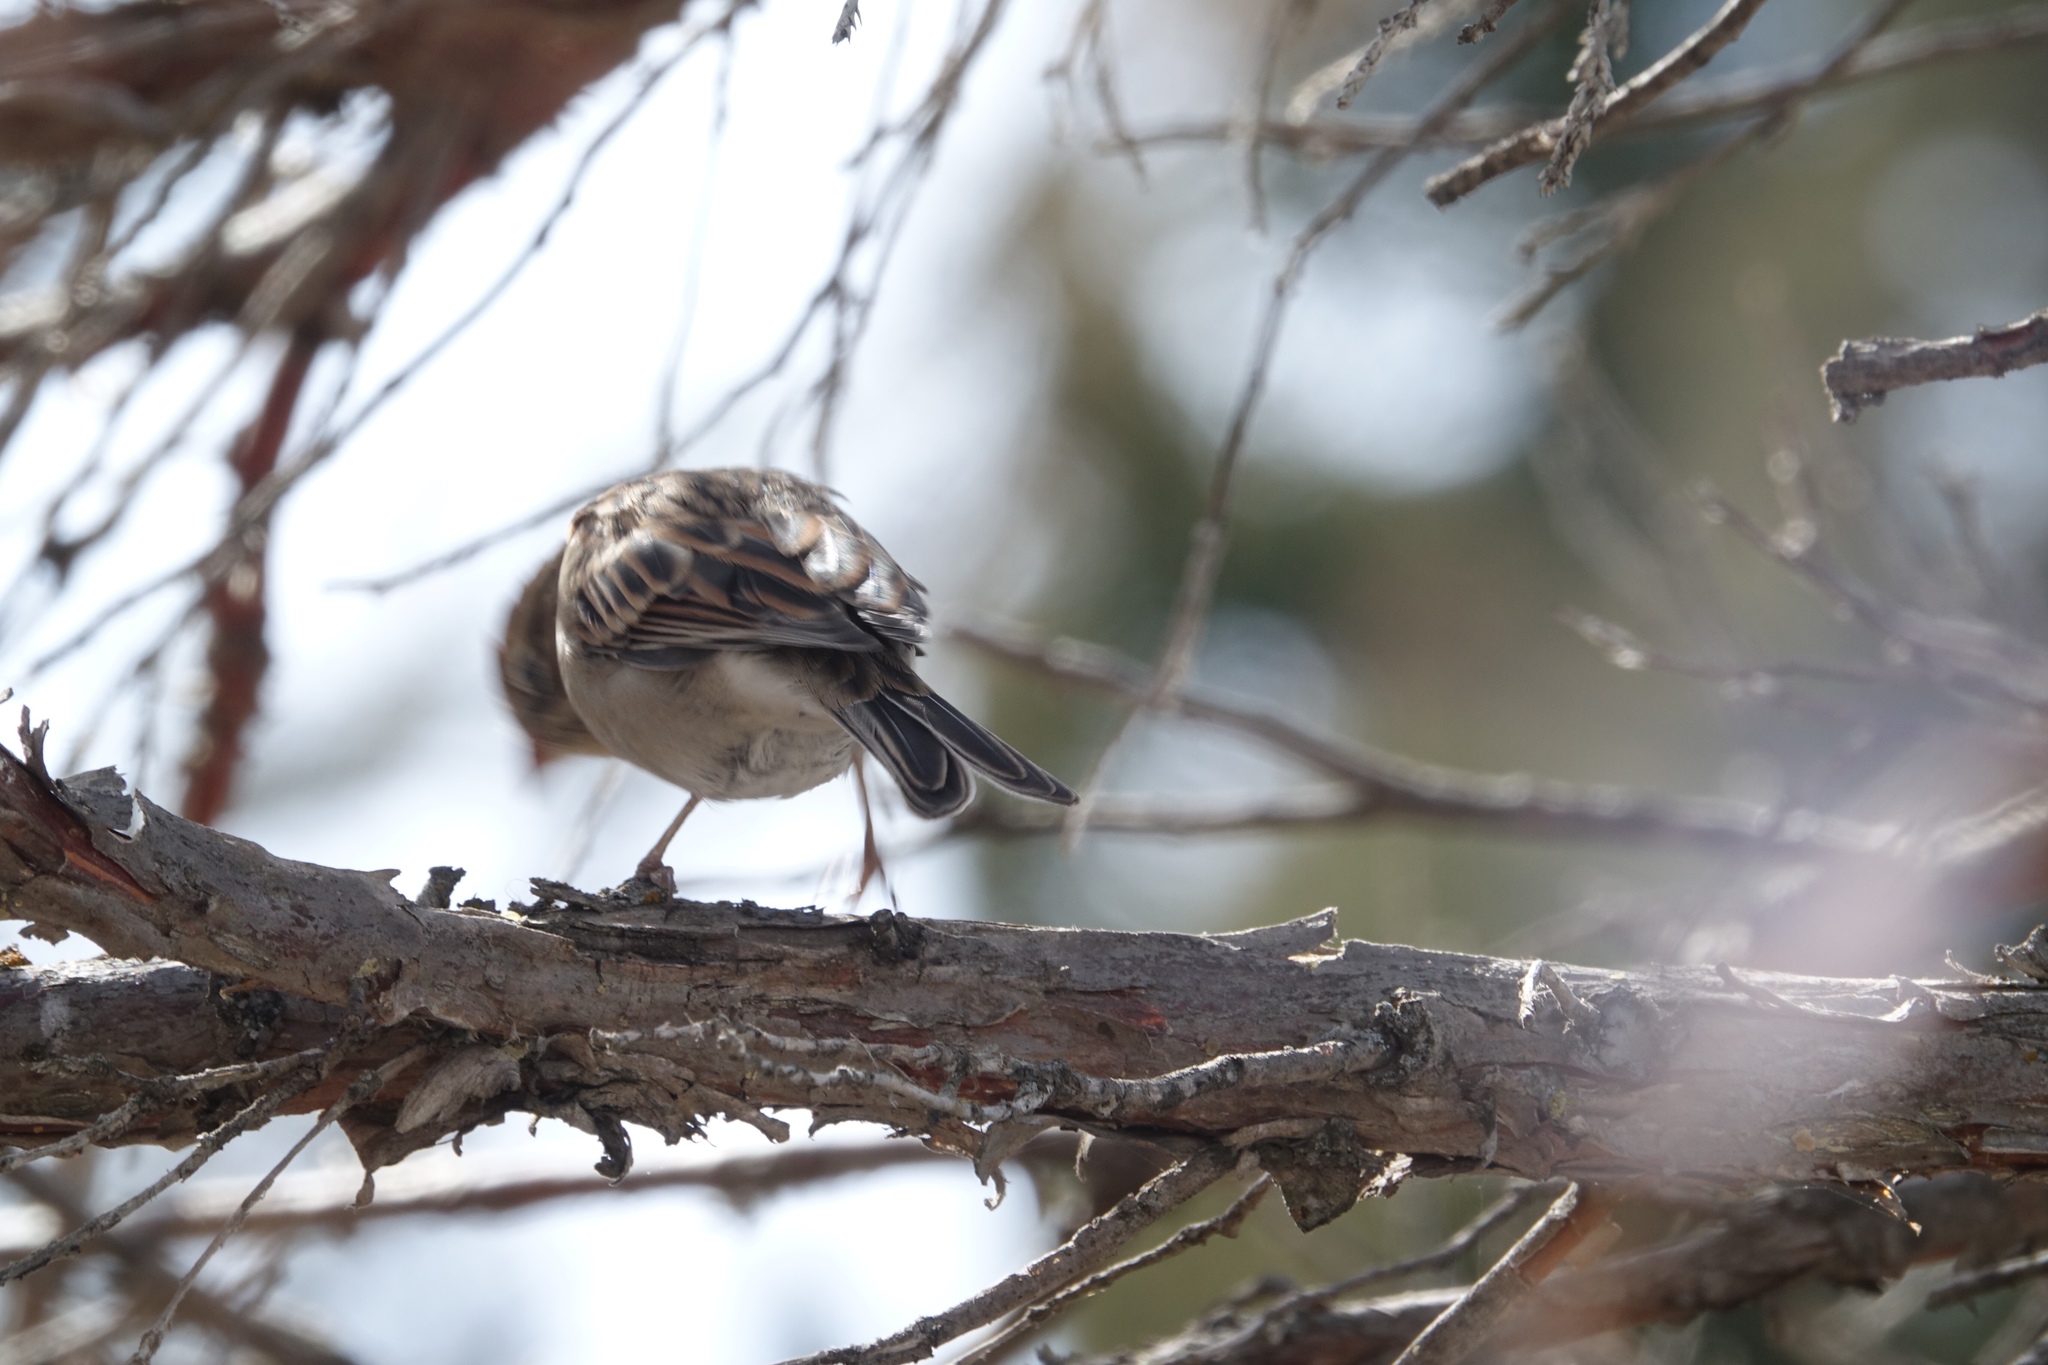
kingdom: Animalia
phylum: Chordata
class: Aves
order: Passeriformes
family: Passerellidae
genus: Spizella
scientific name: Spizella passerina
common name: Chipping sparrow
